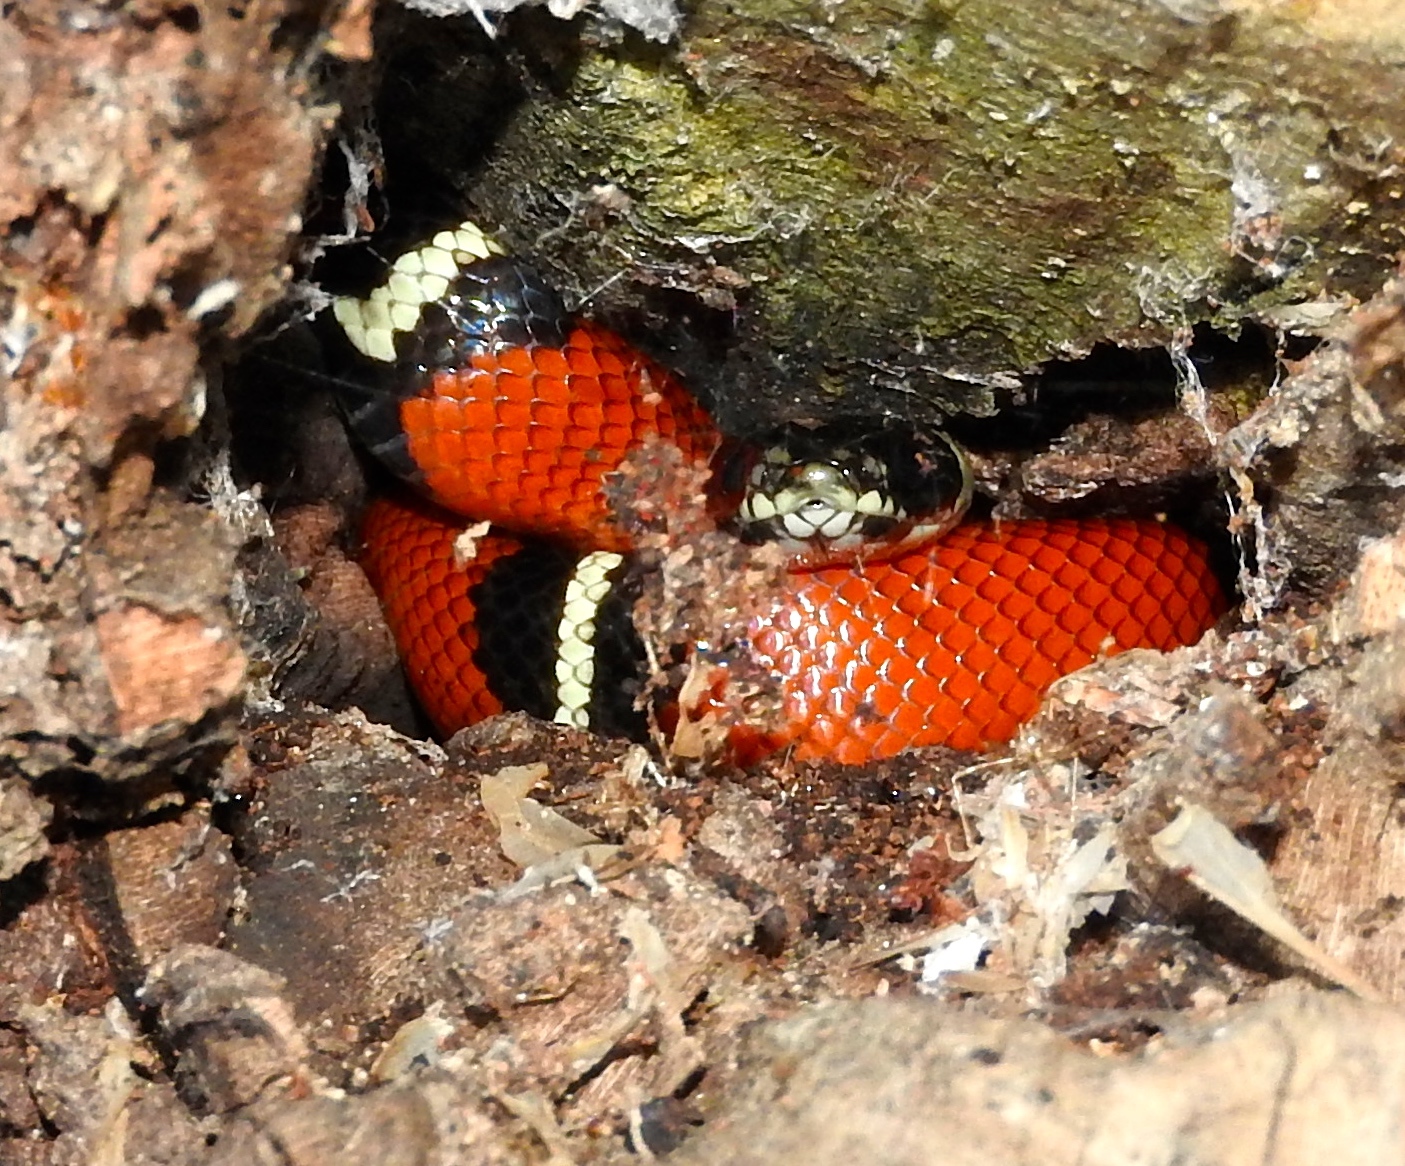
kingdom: Animalia
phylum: Chordata
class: Squamata
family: Colubridae
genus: Lampropeltis
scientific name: Lampropeltis polyzona
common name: Atlantic central american milksnake
